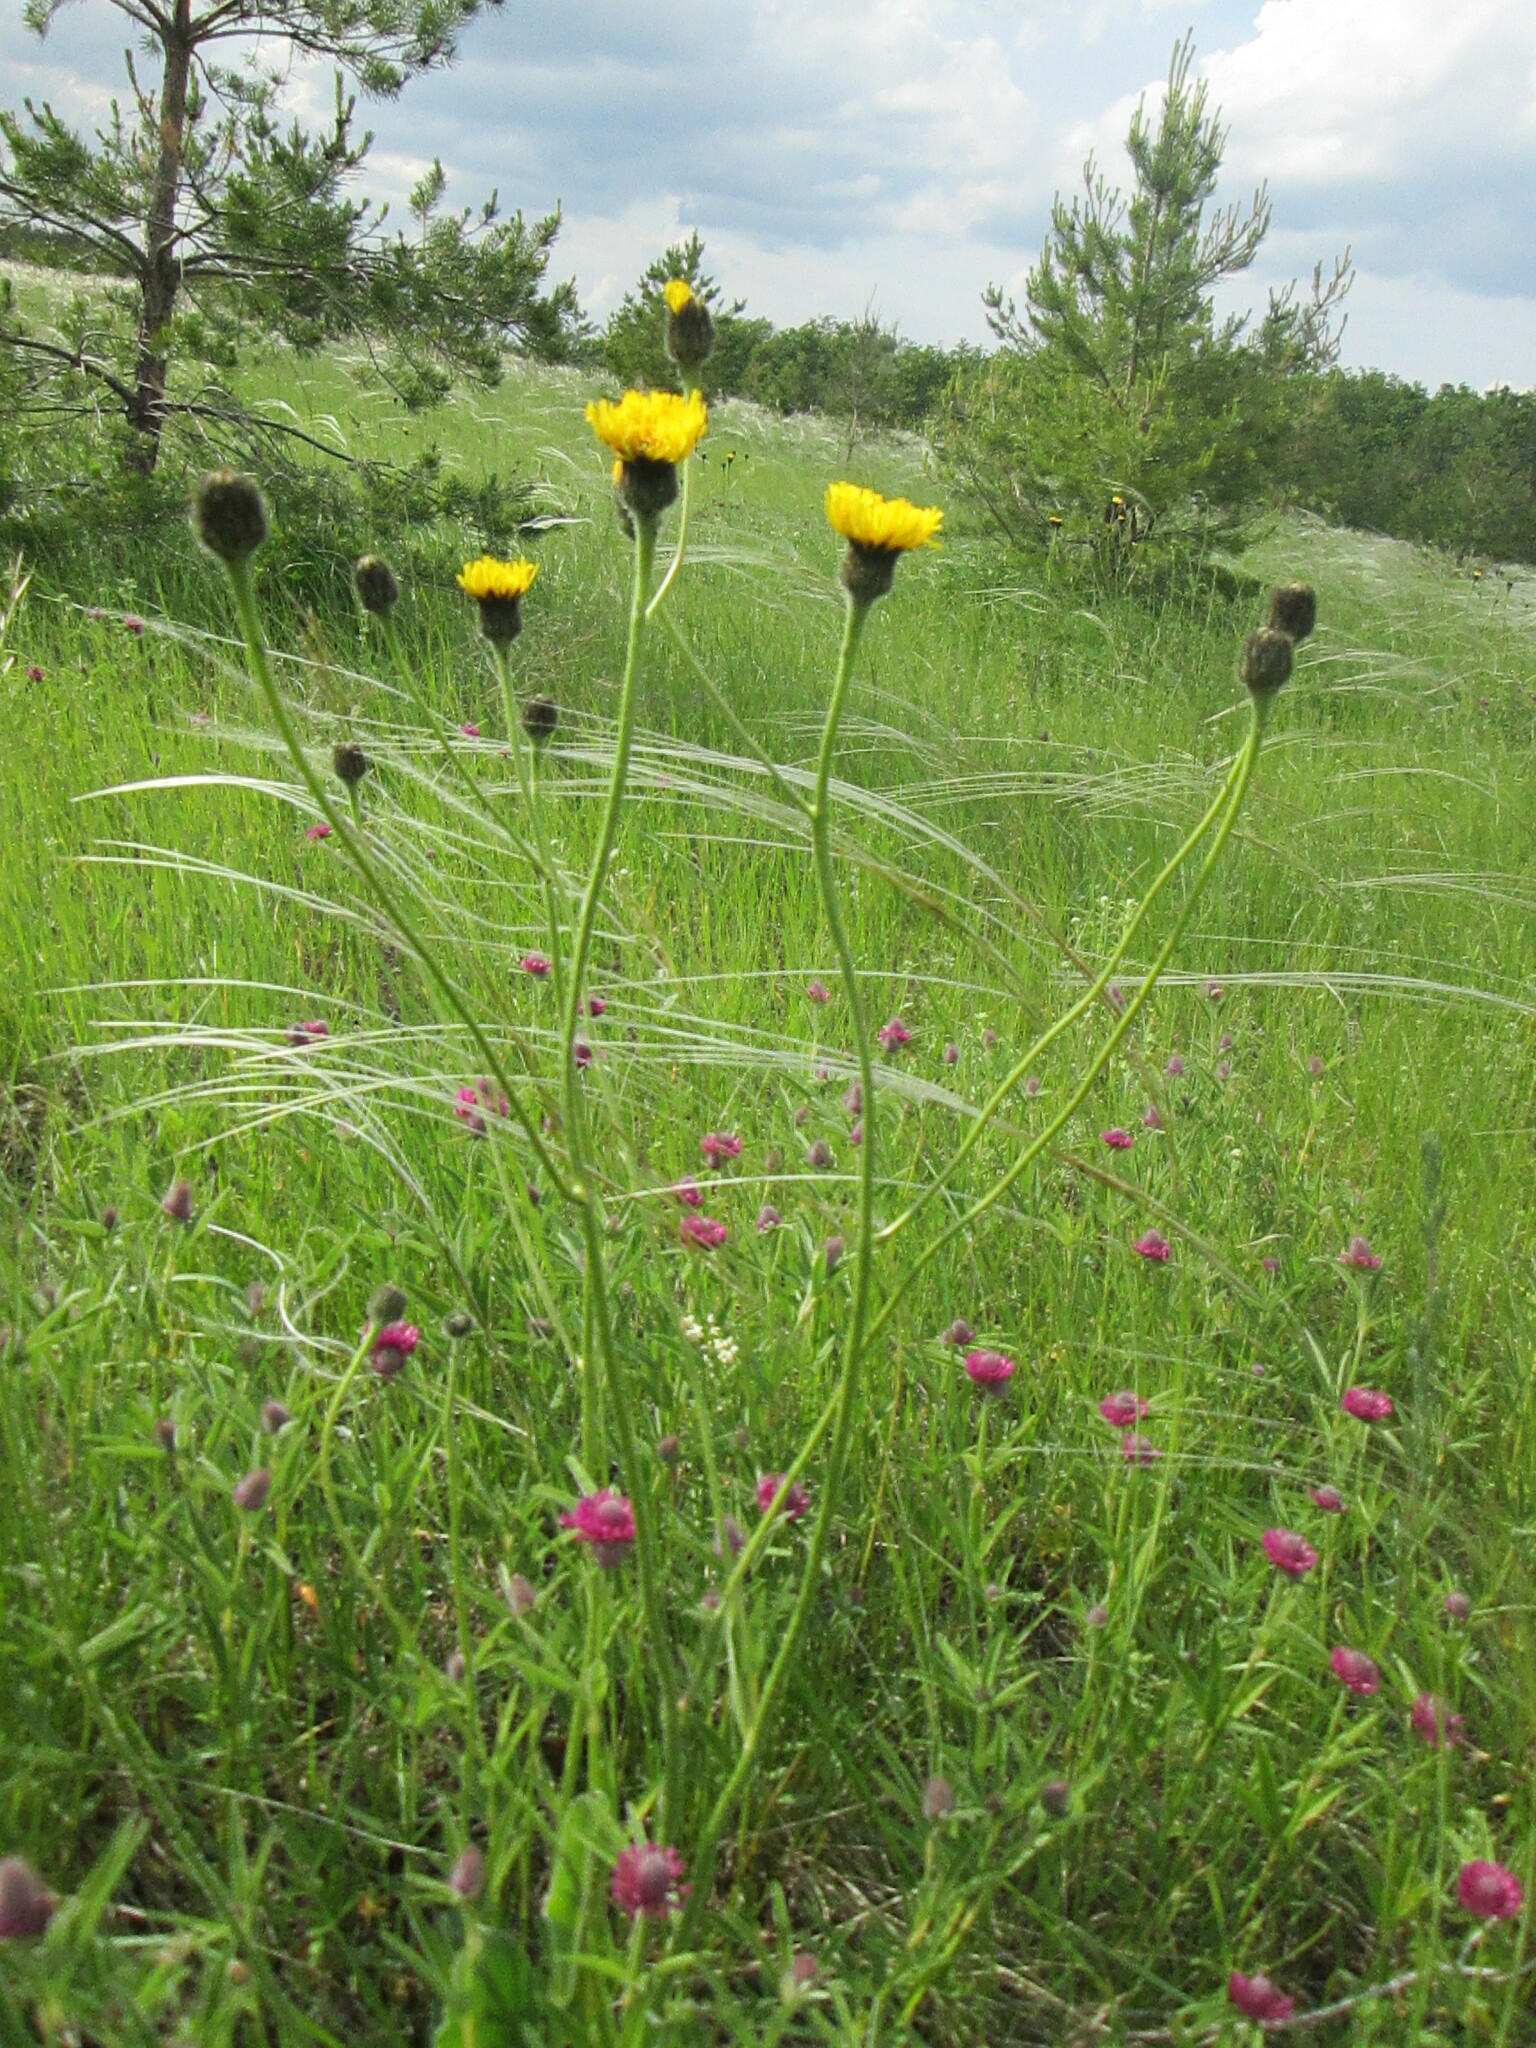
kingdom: Plantae
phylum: Tracheophyta
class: Magnoliopsida
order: Asterales
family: Asteraceae
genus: Trommsdorffia
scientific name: Trommsdorffia maculata
